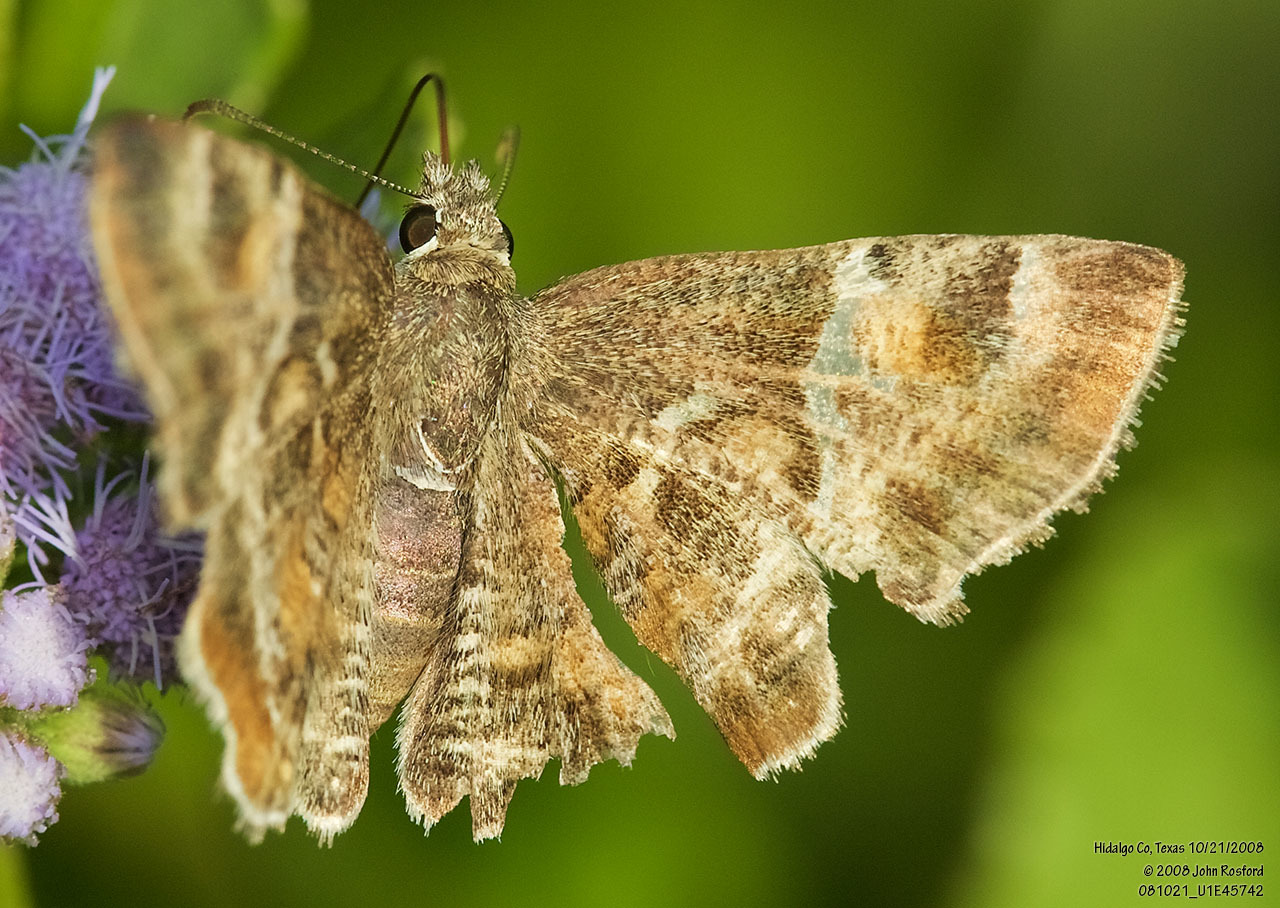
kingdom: Animalia
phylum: Arthropoda
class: Insecta
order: Lepidoptera
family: Hesperiidae
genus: Systasea
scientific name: Systasea pulverulenta
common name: Texas powdered skipper
